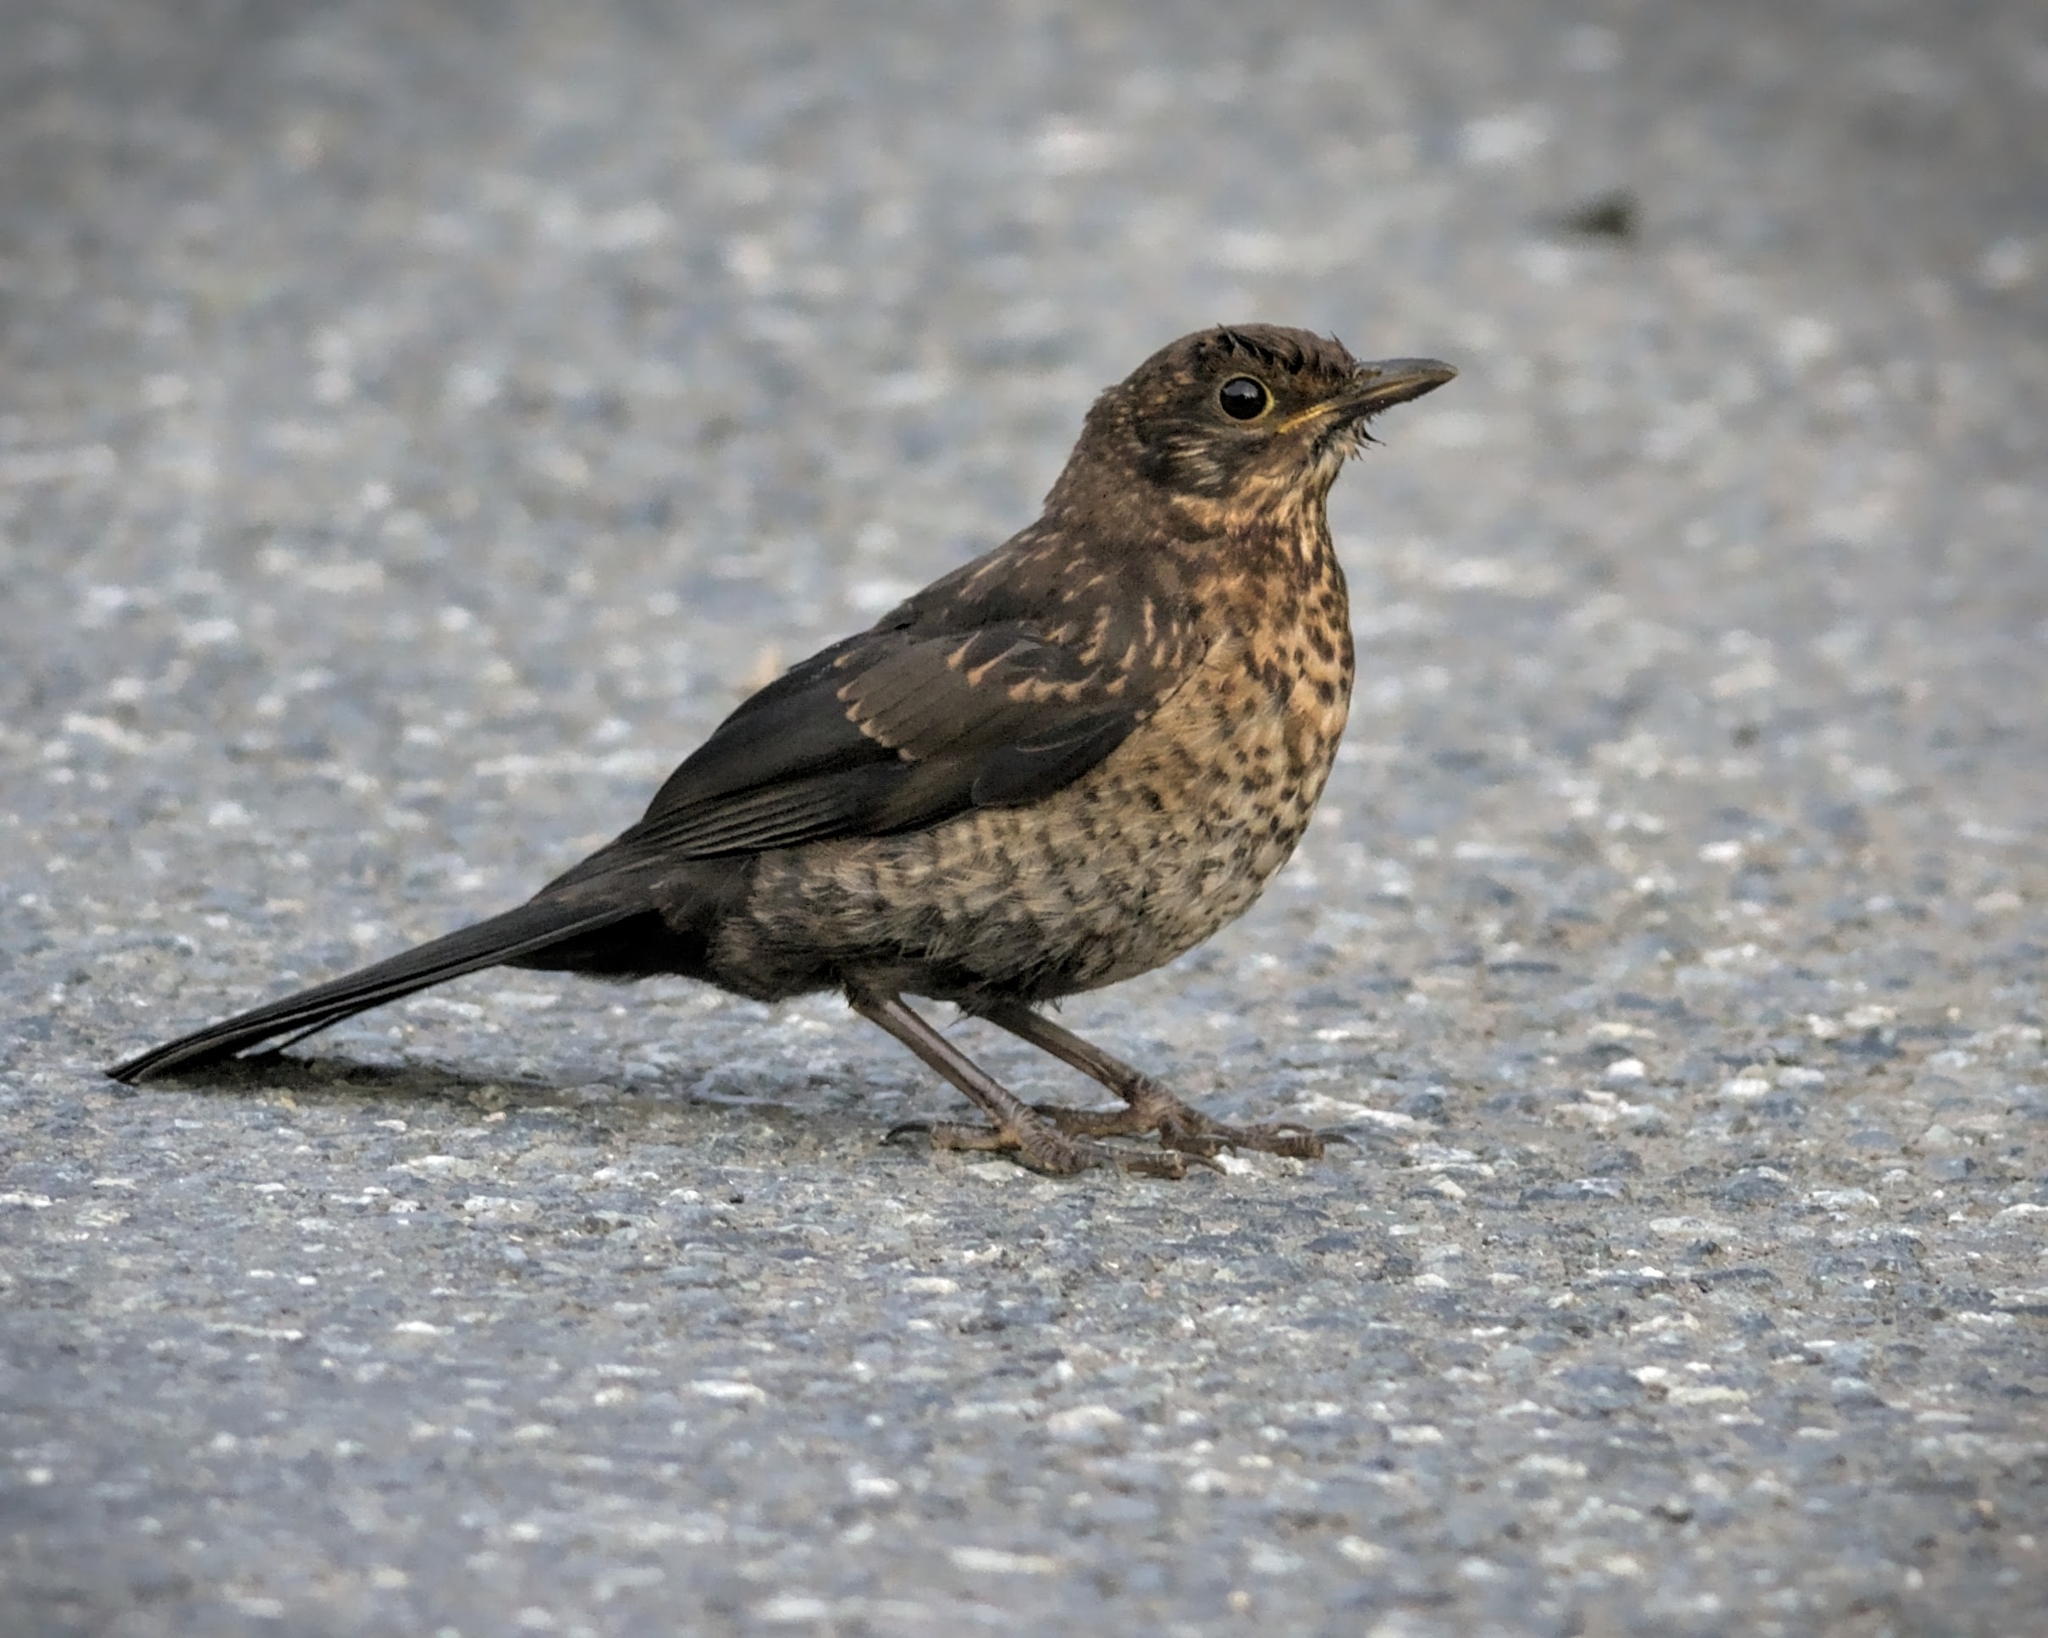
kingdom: Animalia
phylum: Chordata
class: Aves
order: Passeriformes
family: Turdidae
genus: Turdus
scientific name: Turdus merula
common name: Common blackbird
